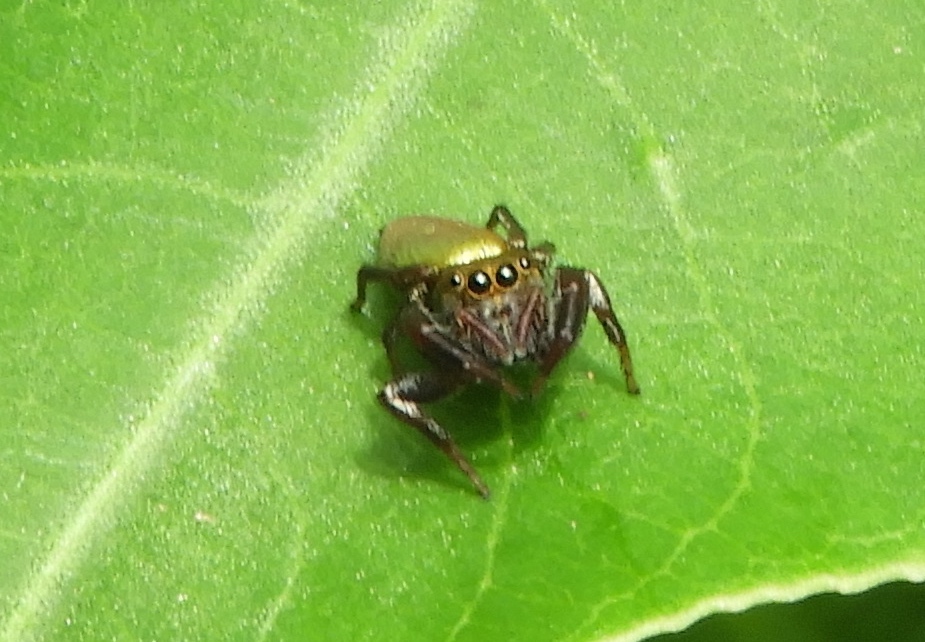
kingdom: Animalia
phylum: Arthropoda
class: Arachnida
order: Araneae
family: Salticidae
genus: Messua
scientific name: Messua limbata
